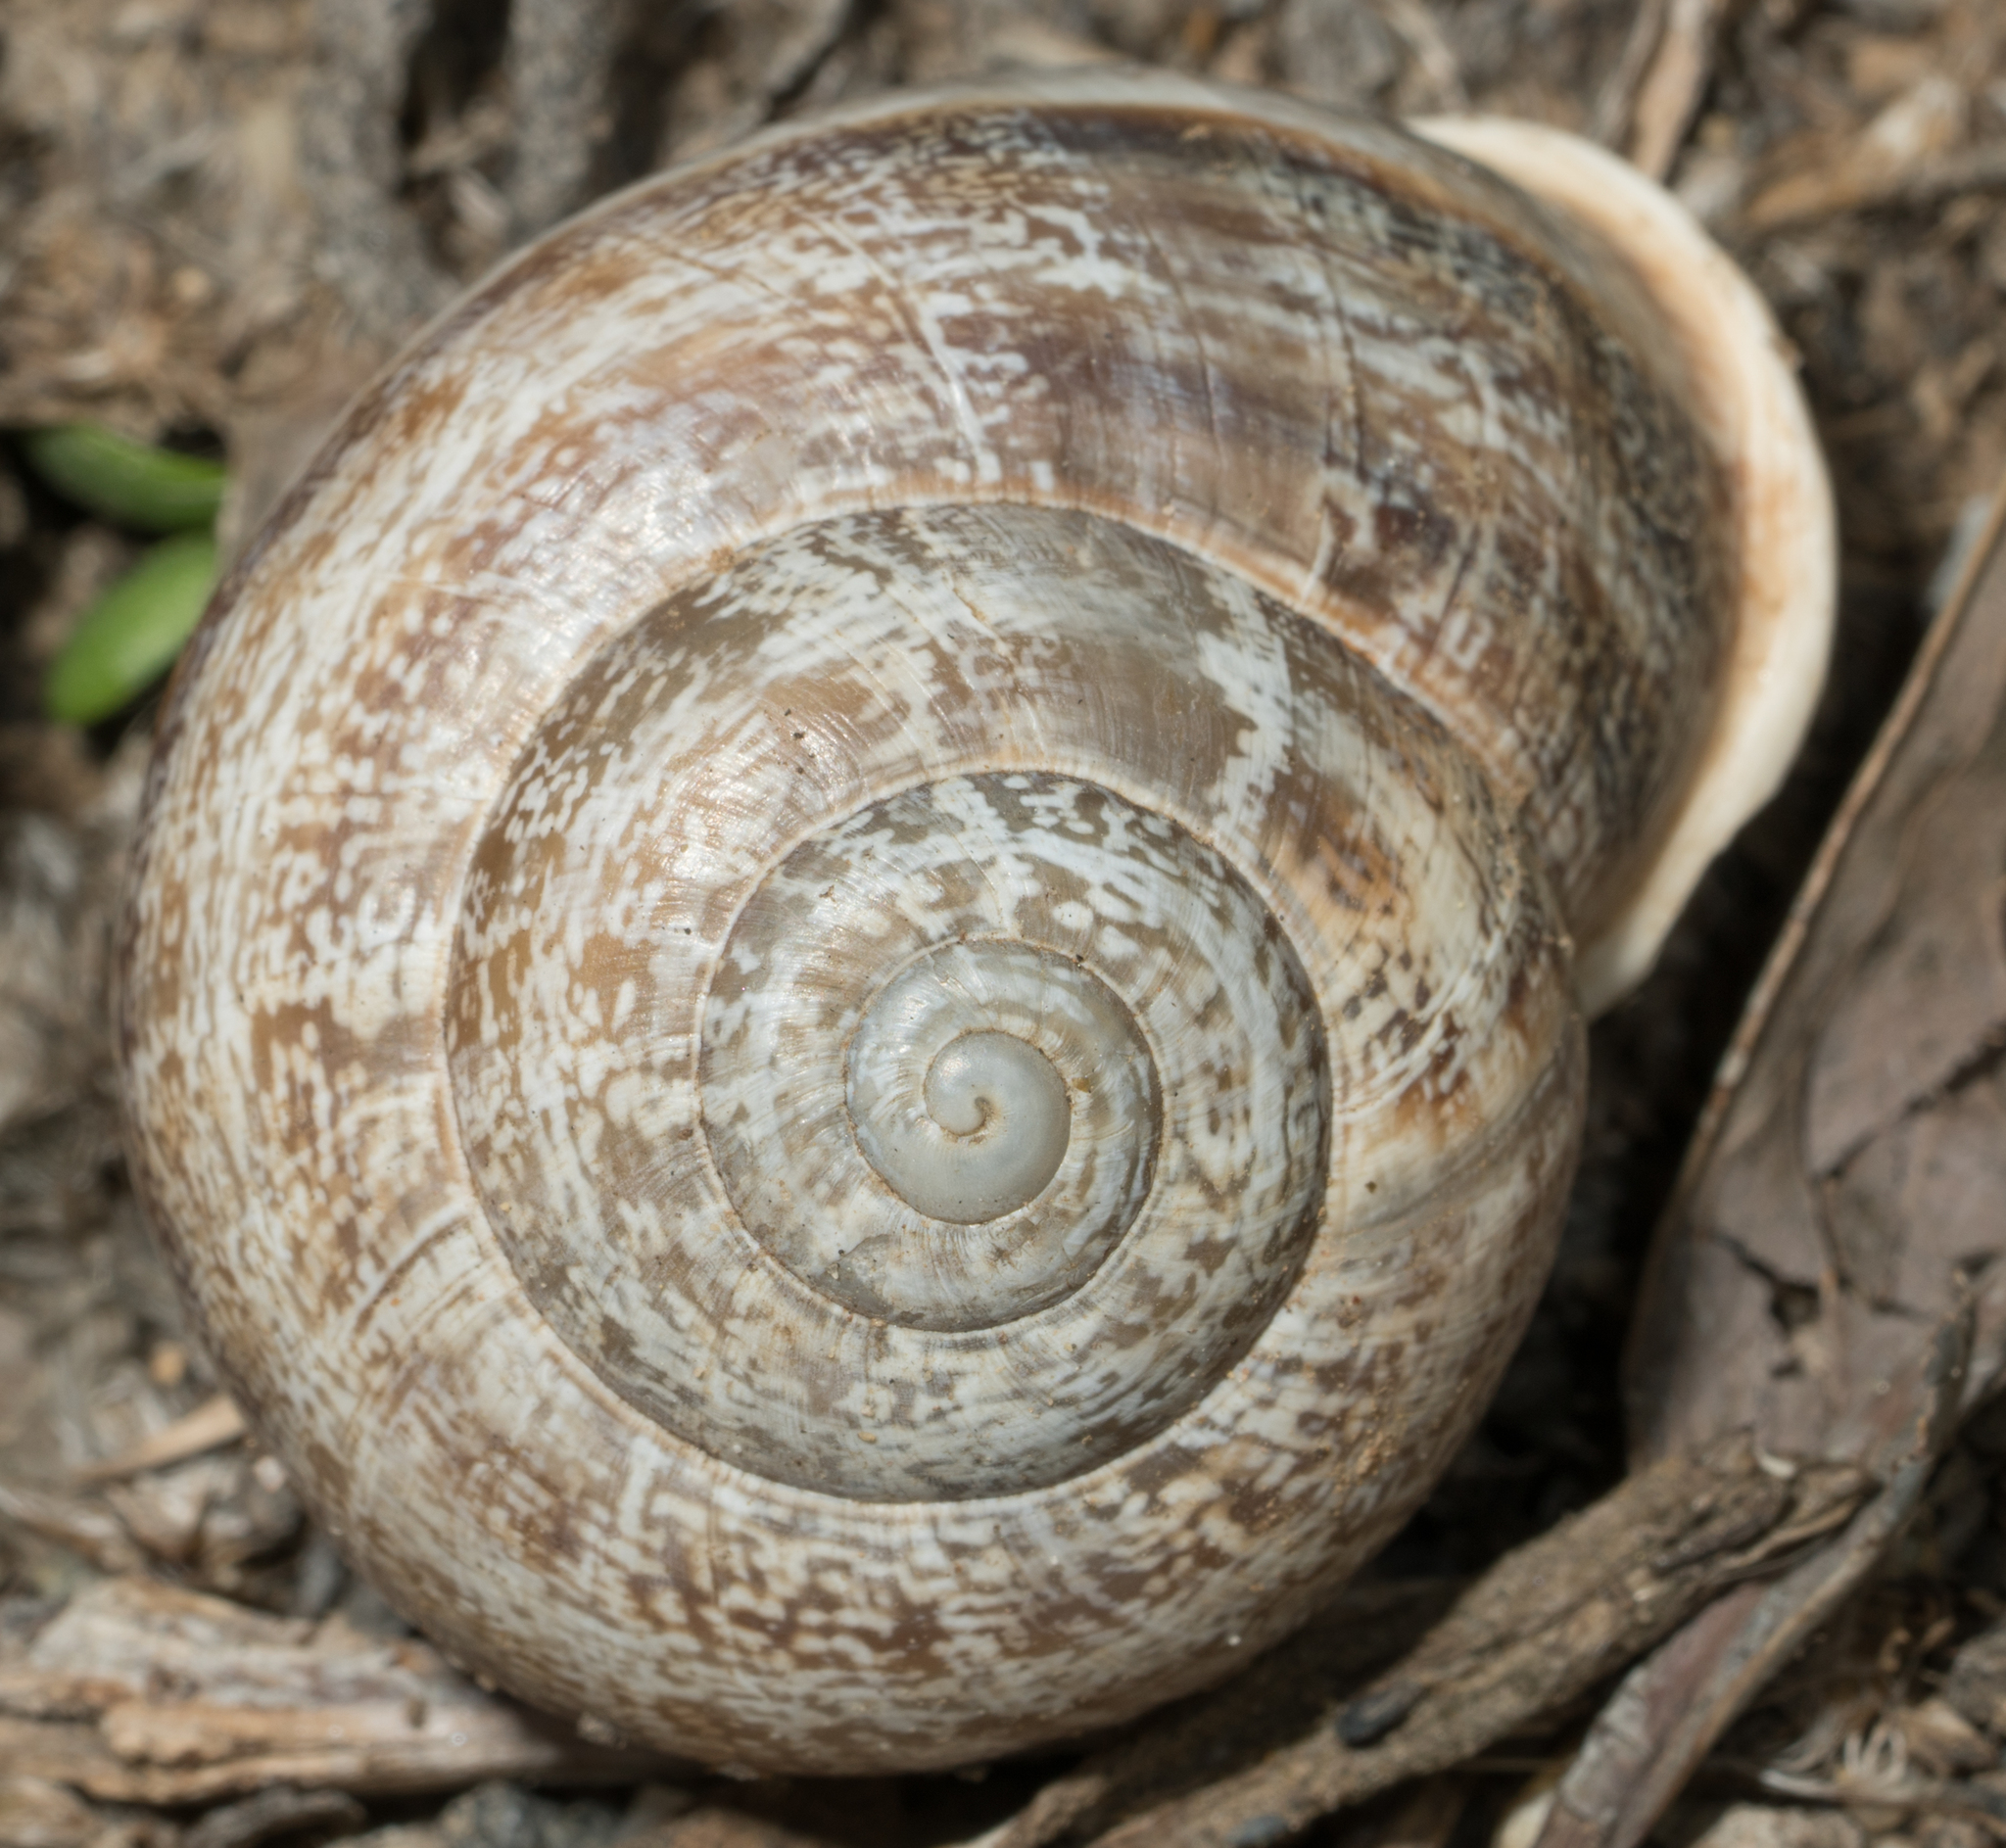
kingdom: Animalia
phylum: Mollusca
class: Gastropoda
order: Stylommatophora
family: Helicidae
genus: Otala
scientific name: Otala lactea
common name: Milk snail
